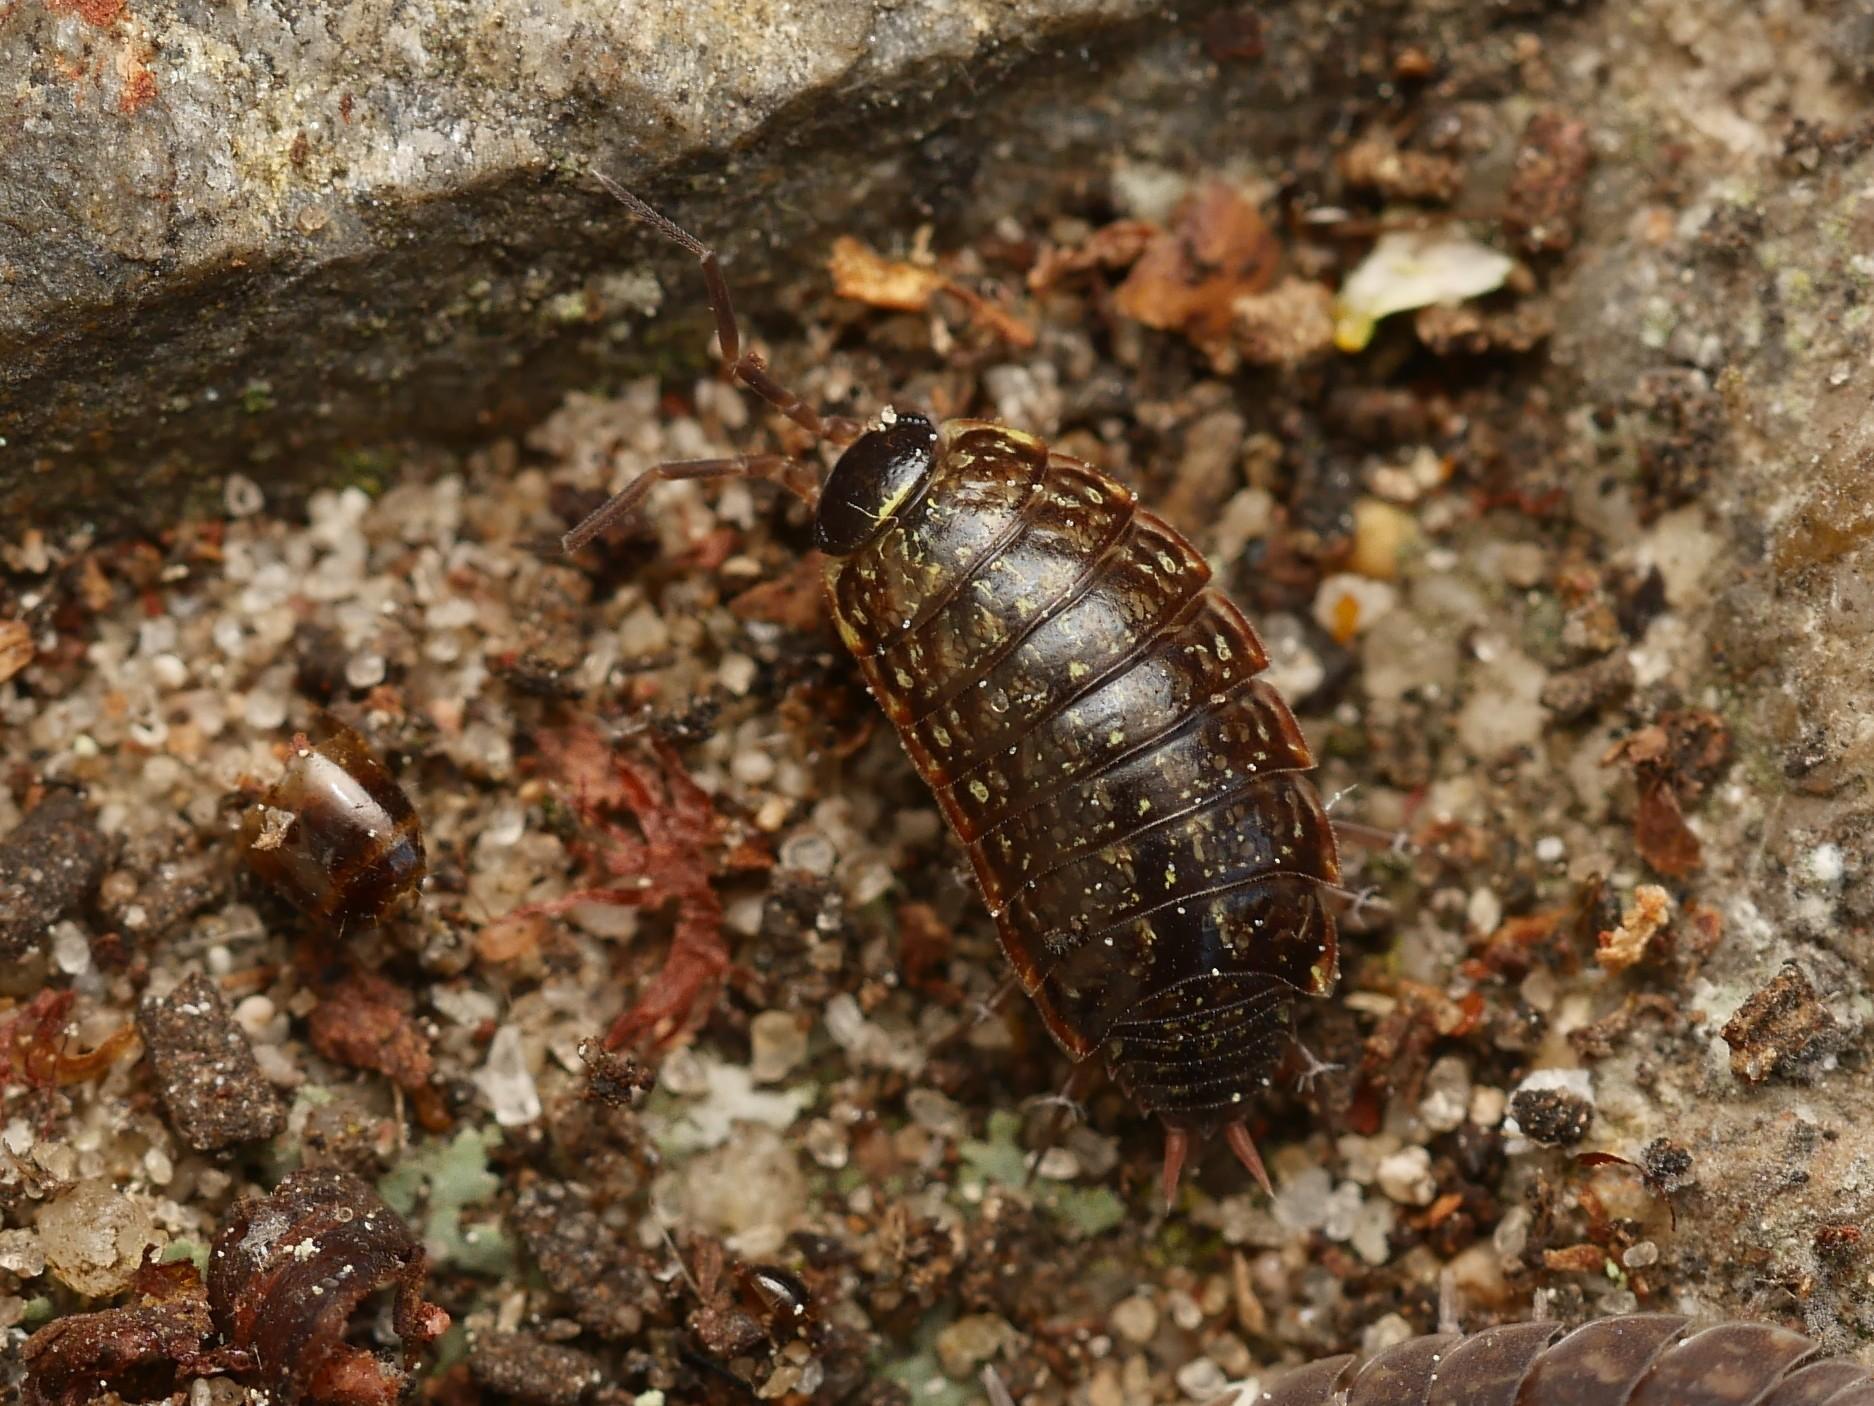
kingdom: Animalia
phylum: Arthropoda
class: Malacostraca
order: Isopoda
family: Philosciidae
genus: Philoscia
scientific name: Philoscia muscorum
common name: Common striped woodlouse
